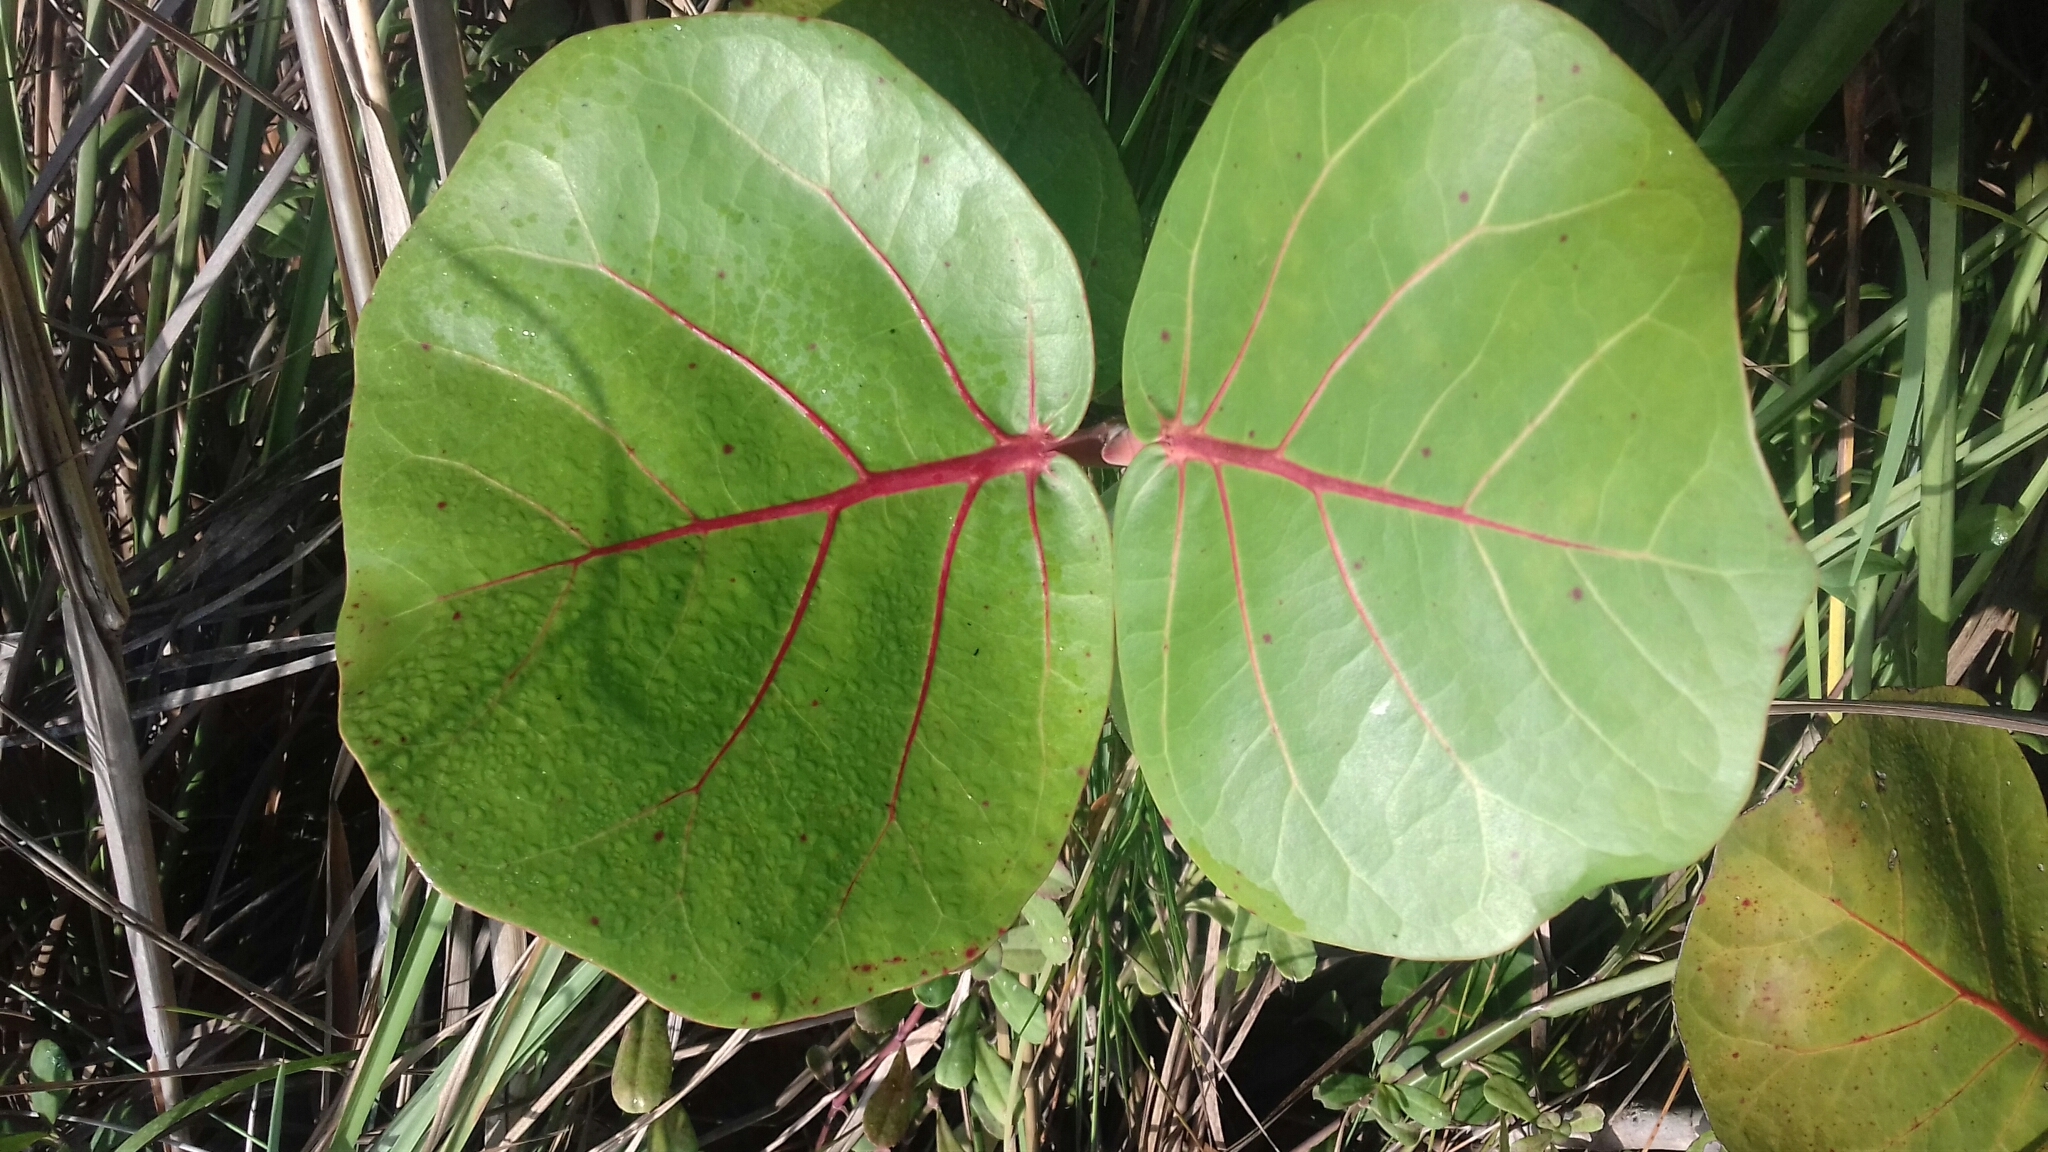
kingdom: Plantae
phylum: Tracheophyta
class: Magnoliopsida
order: Caryophyllales
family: Polygonaceae
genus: Coccoloba
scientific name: Coccoloba uvifera
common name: Seagrape
